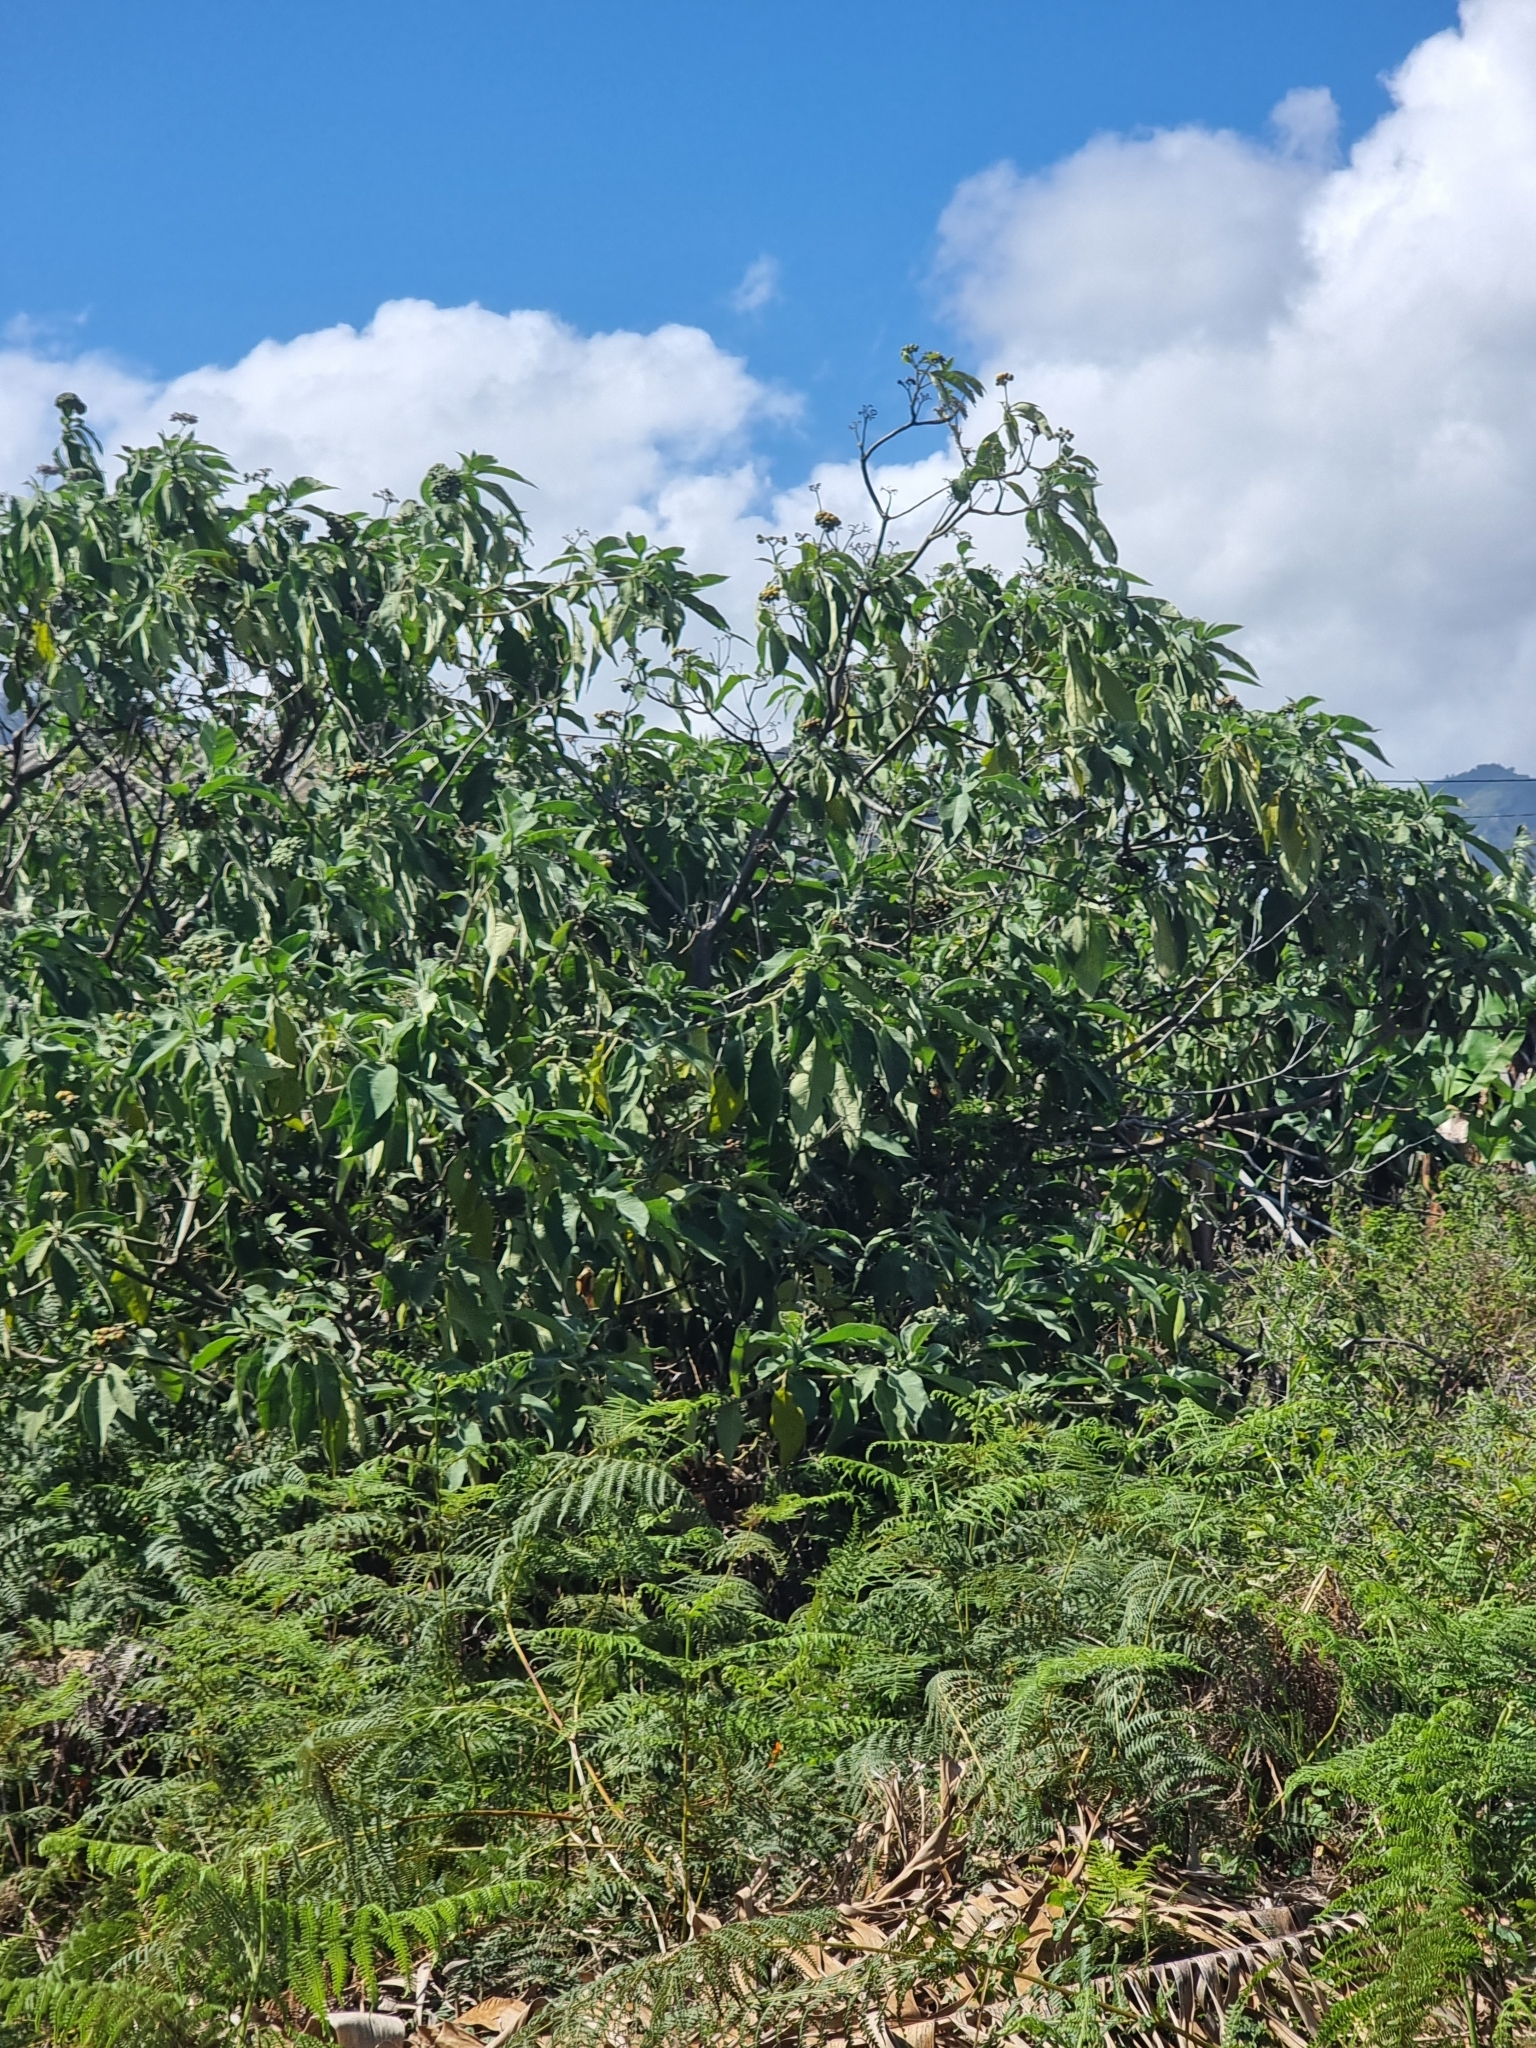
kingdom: Plantae
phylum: Tracheophyta
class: Magnoliopsida
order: Solanales
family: Solanaceae
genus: Solanum
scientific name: Solanum mauritianum
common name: Earleaf nightshade
